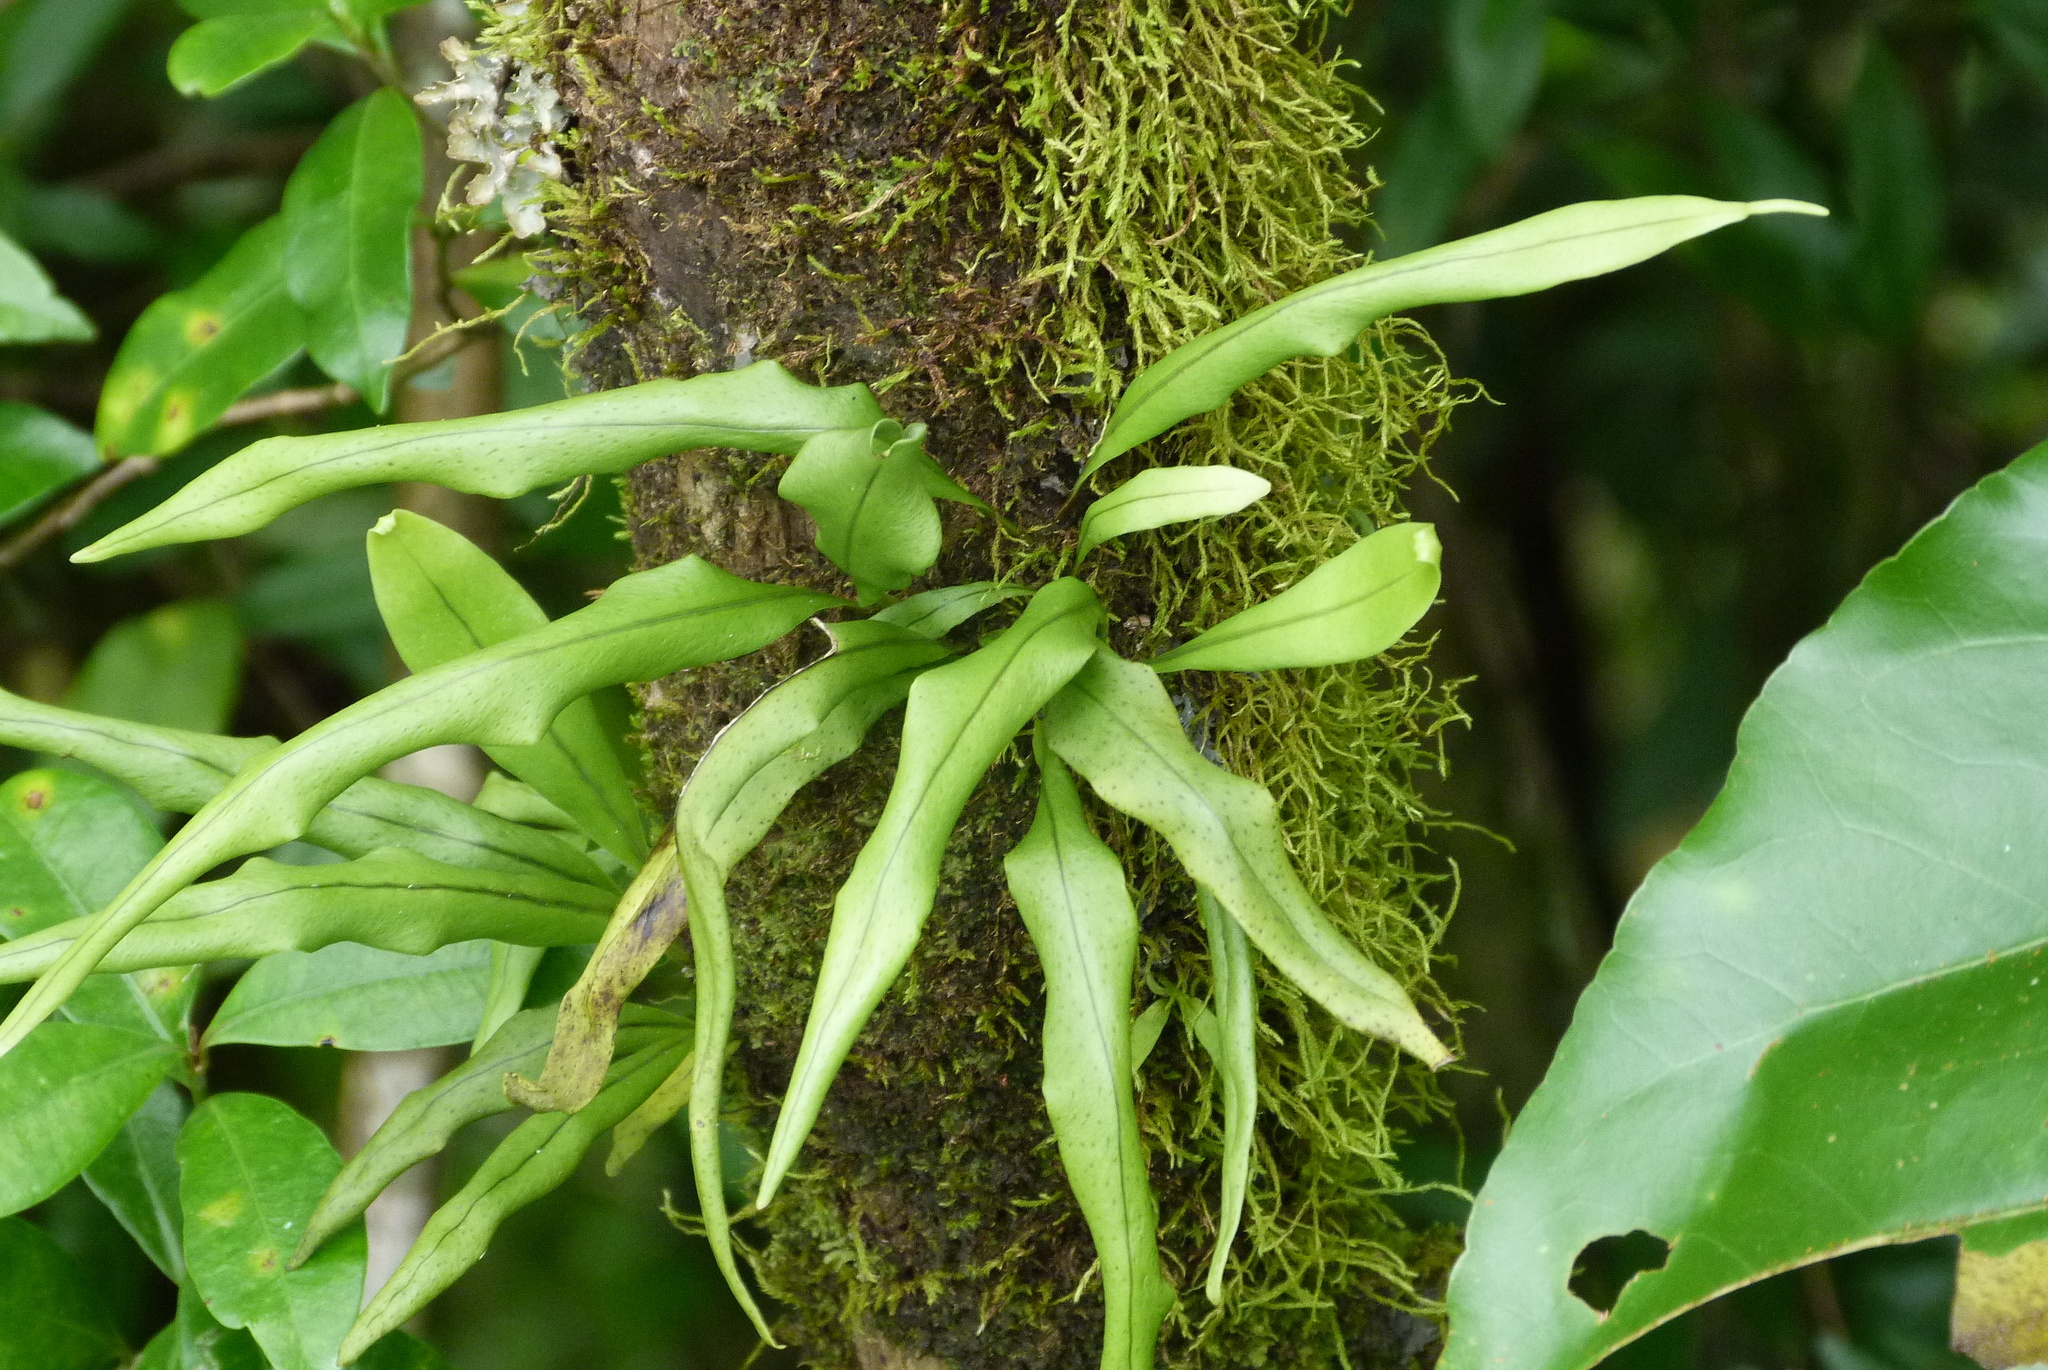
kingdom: Plantae
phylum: Tracheophyta
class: Polypodiopsida
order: Polypodiales
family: Polypodiaceae
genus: Lepisorus
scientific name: Lepisorus mucronatus
